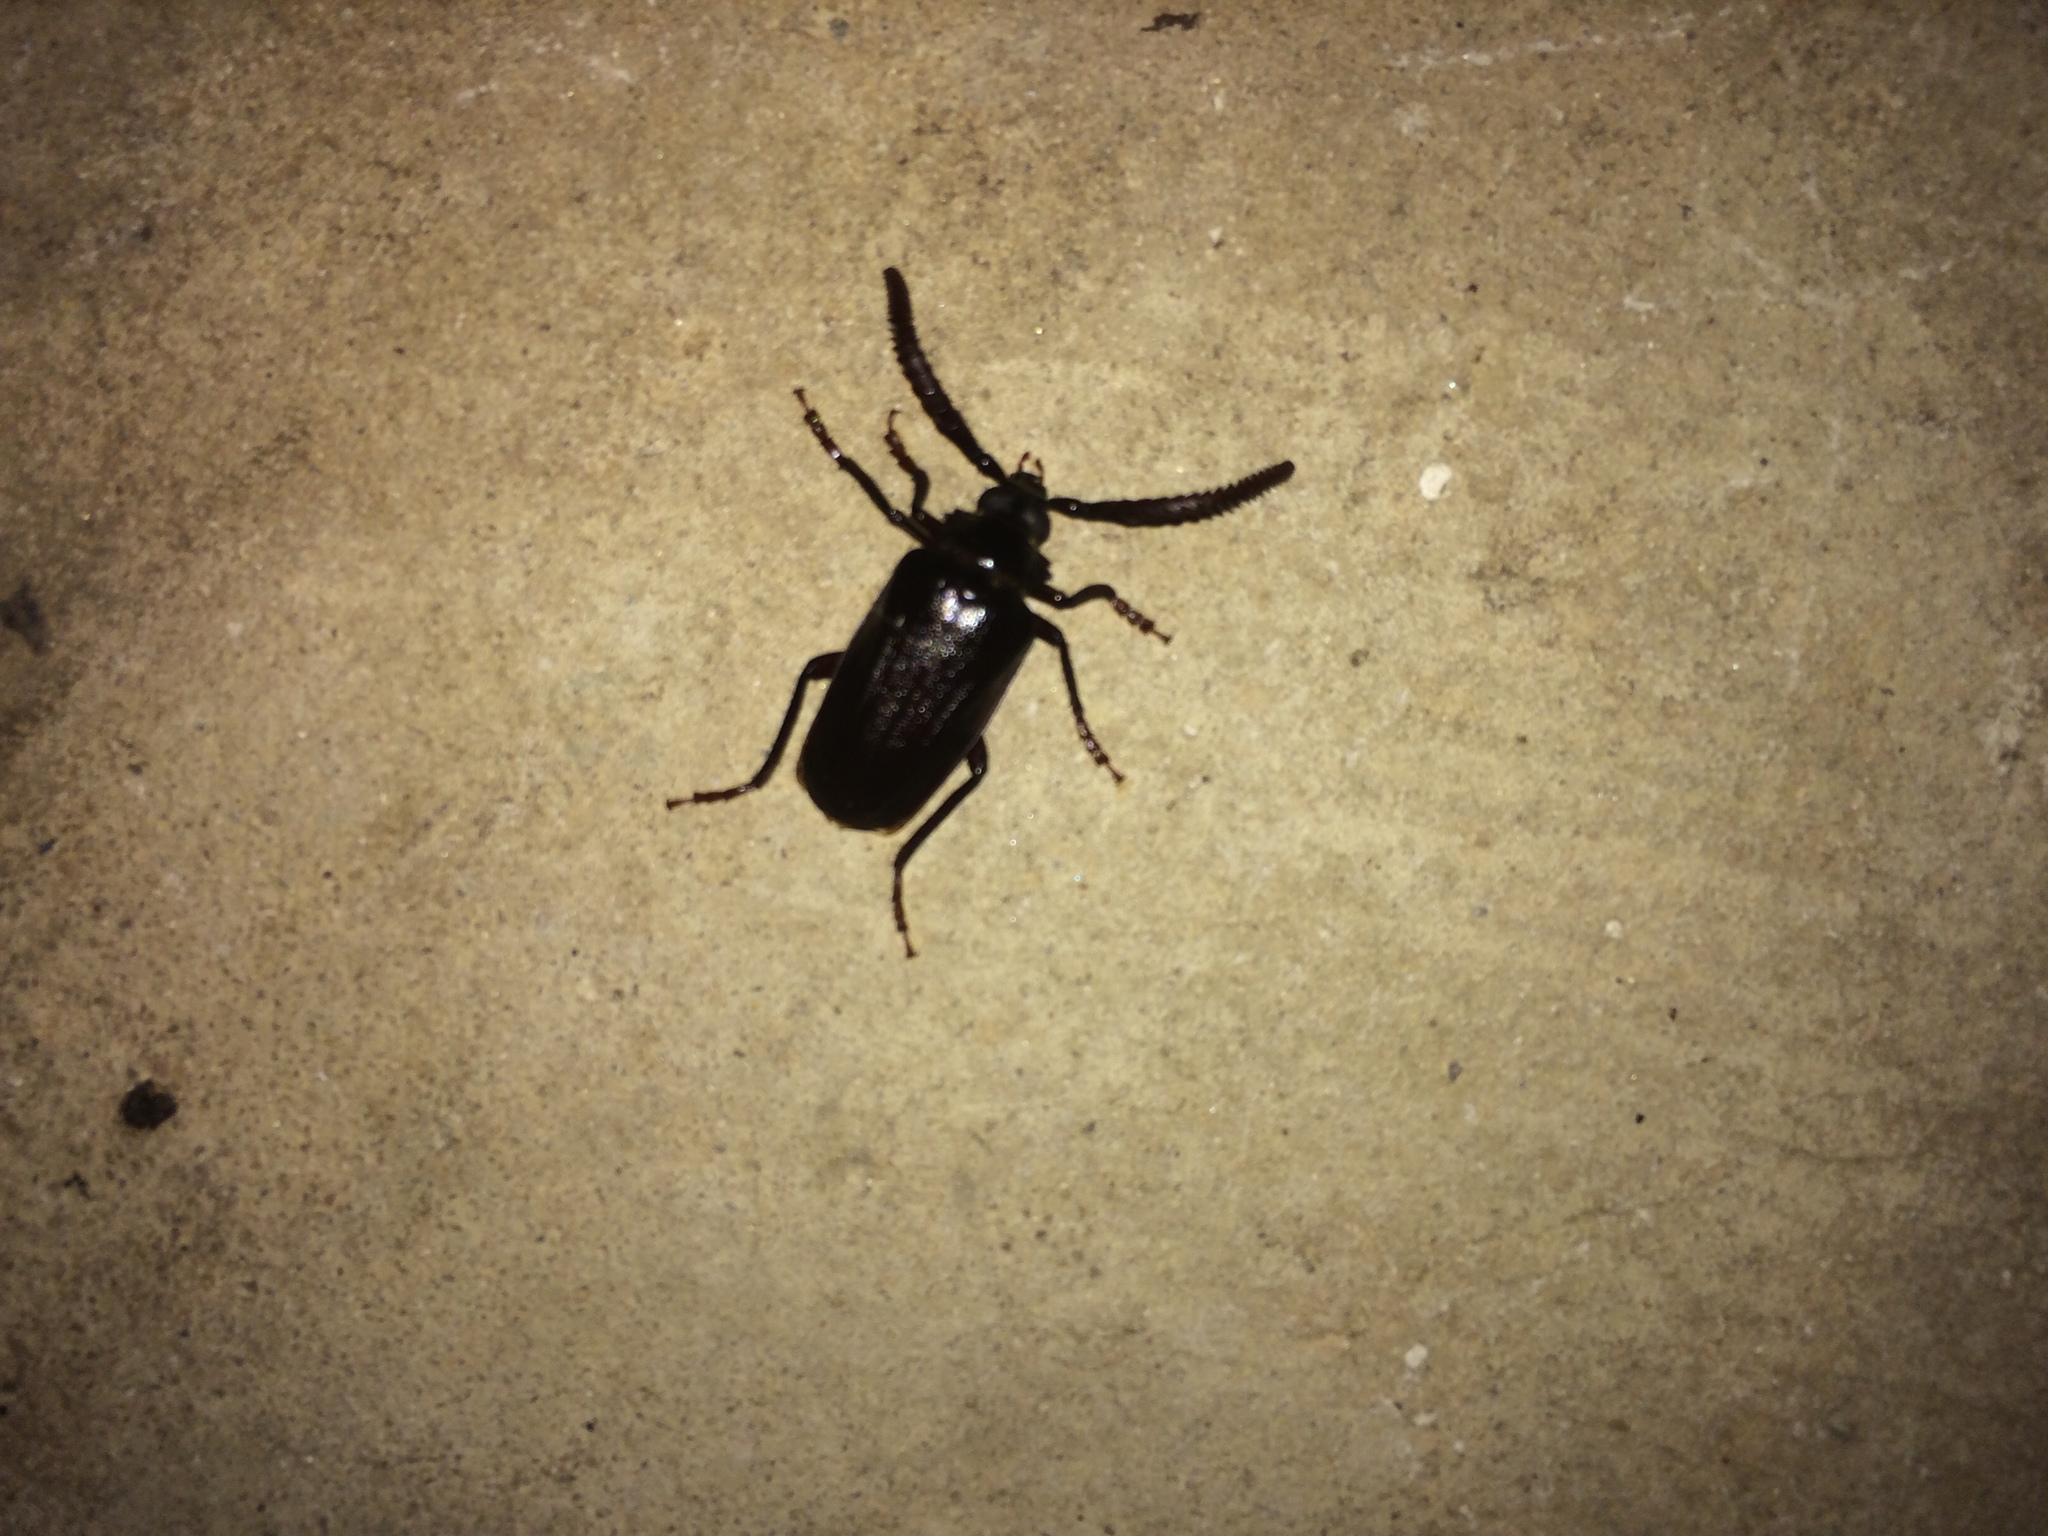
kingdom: Animalia
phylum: Arthropoda
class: Insecta
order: Coleoptera
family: Cerambycidae
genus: Prionus
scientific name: Prionus imbricornis
